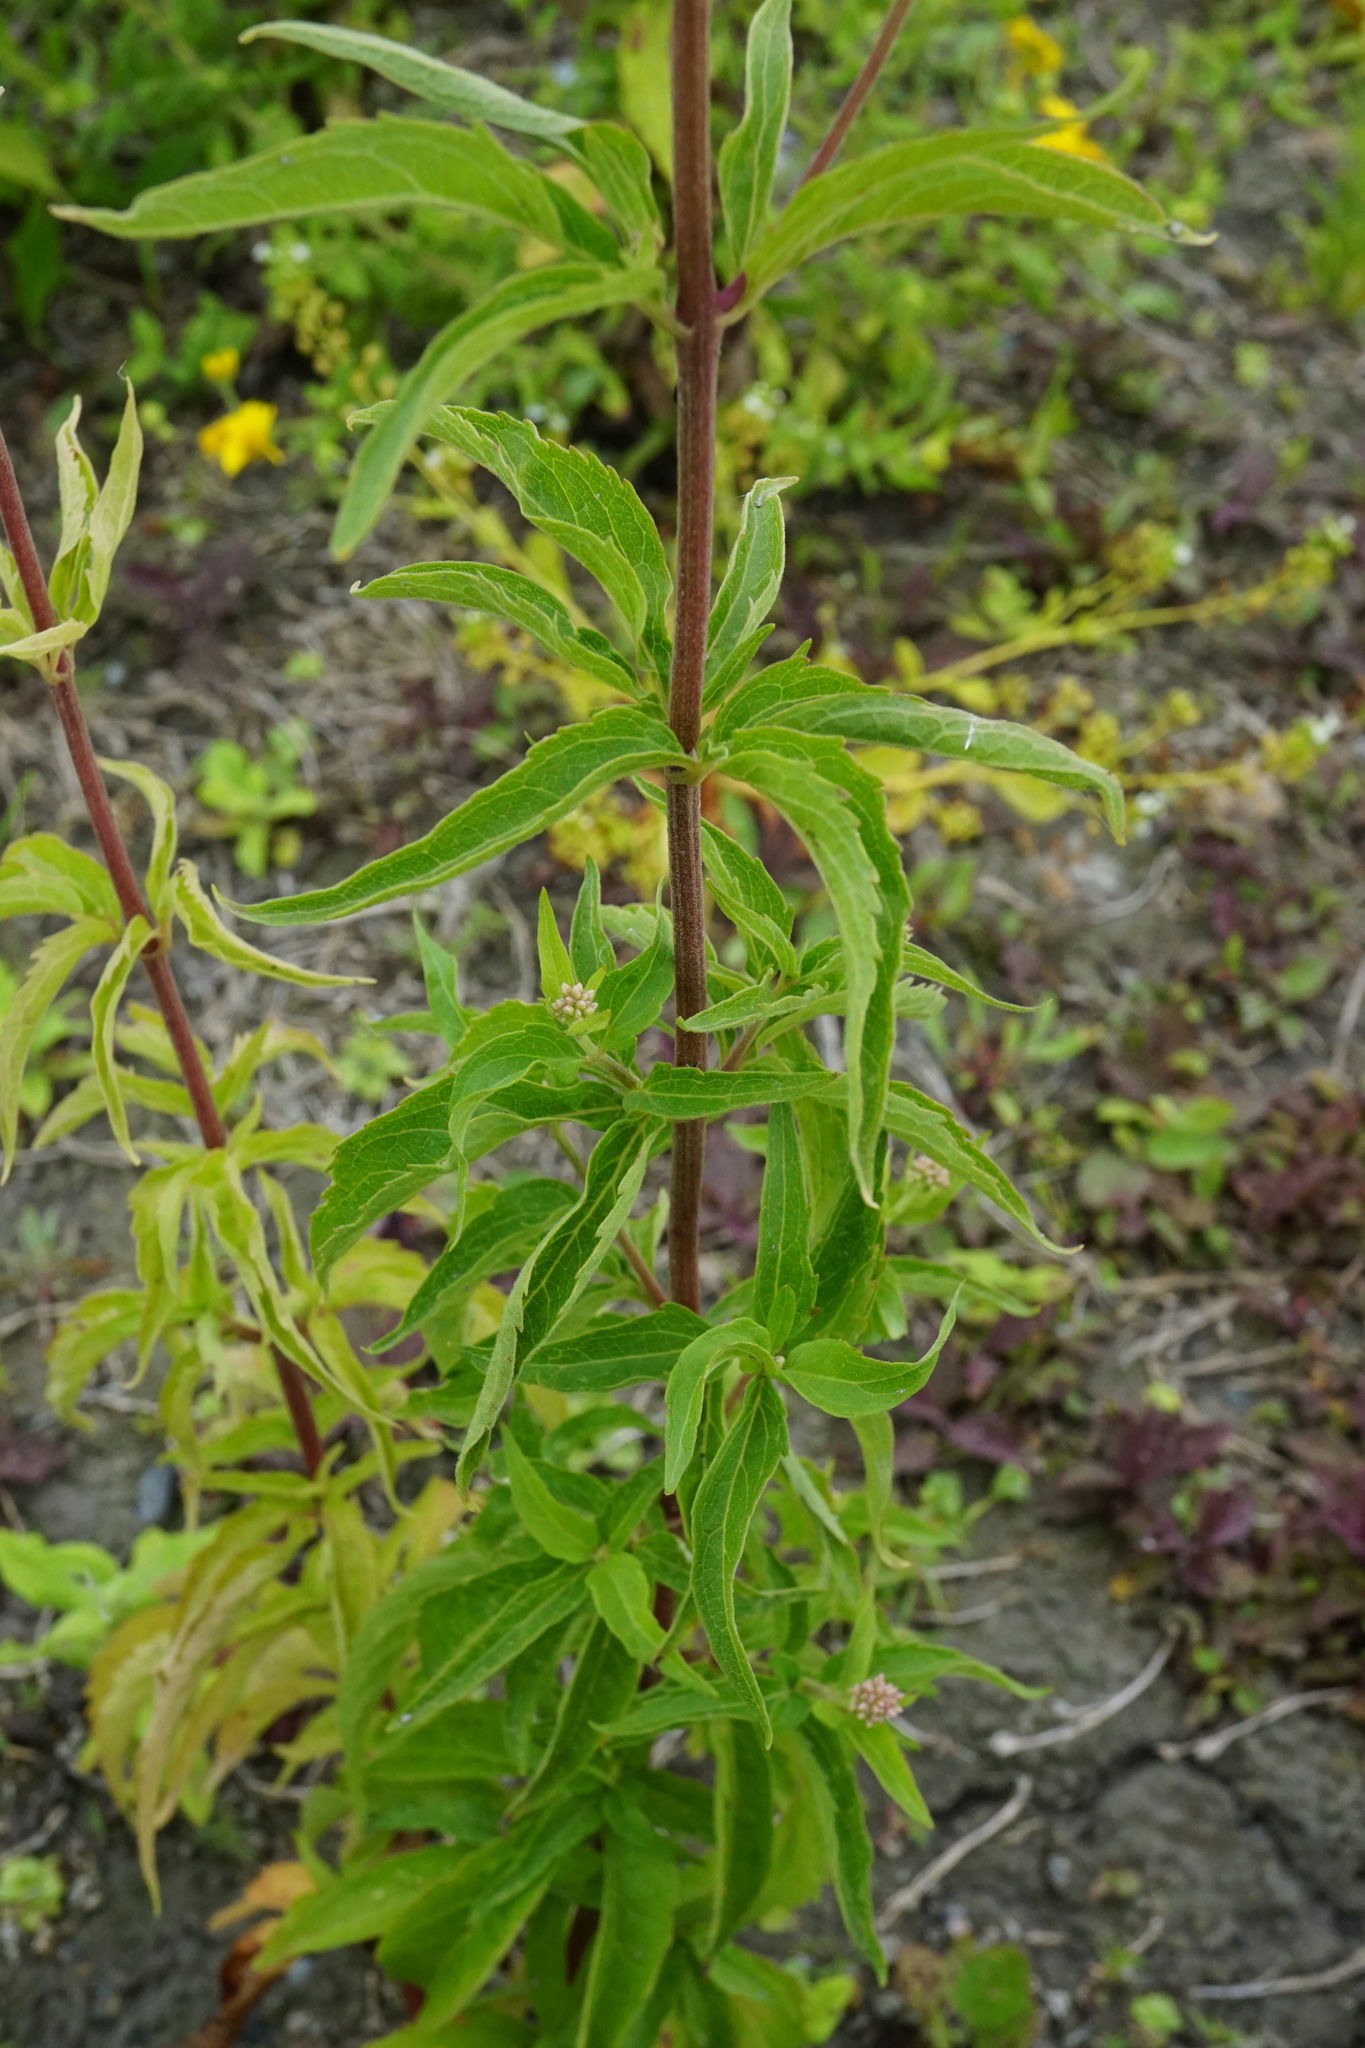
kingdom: Plantae
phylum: Tracheophyta
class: Magnoliopsida
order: Asterales
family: Asteraceae
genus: Eupatorium
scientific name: Eupatorium cannabinum
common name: Hemp-agrimony
